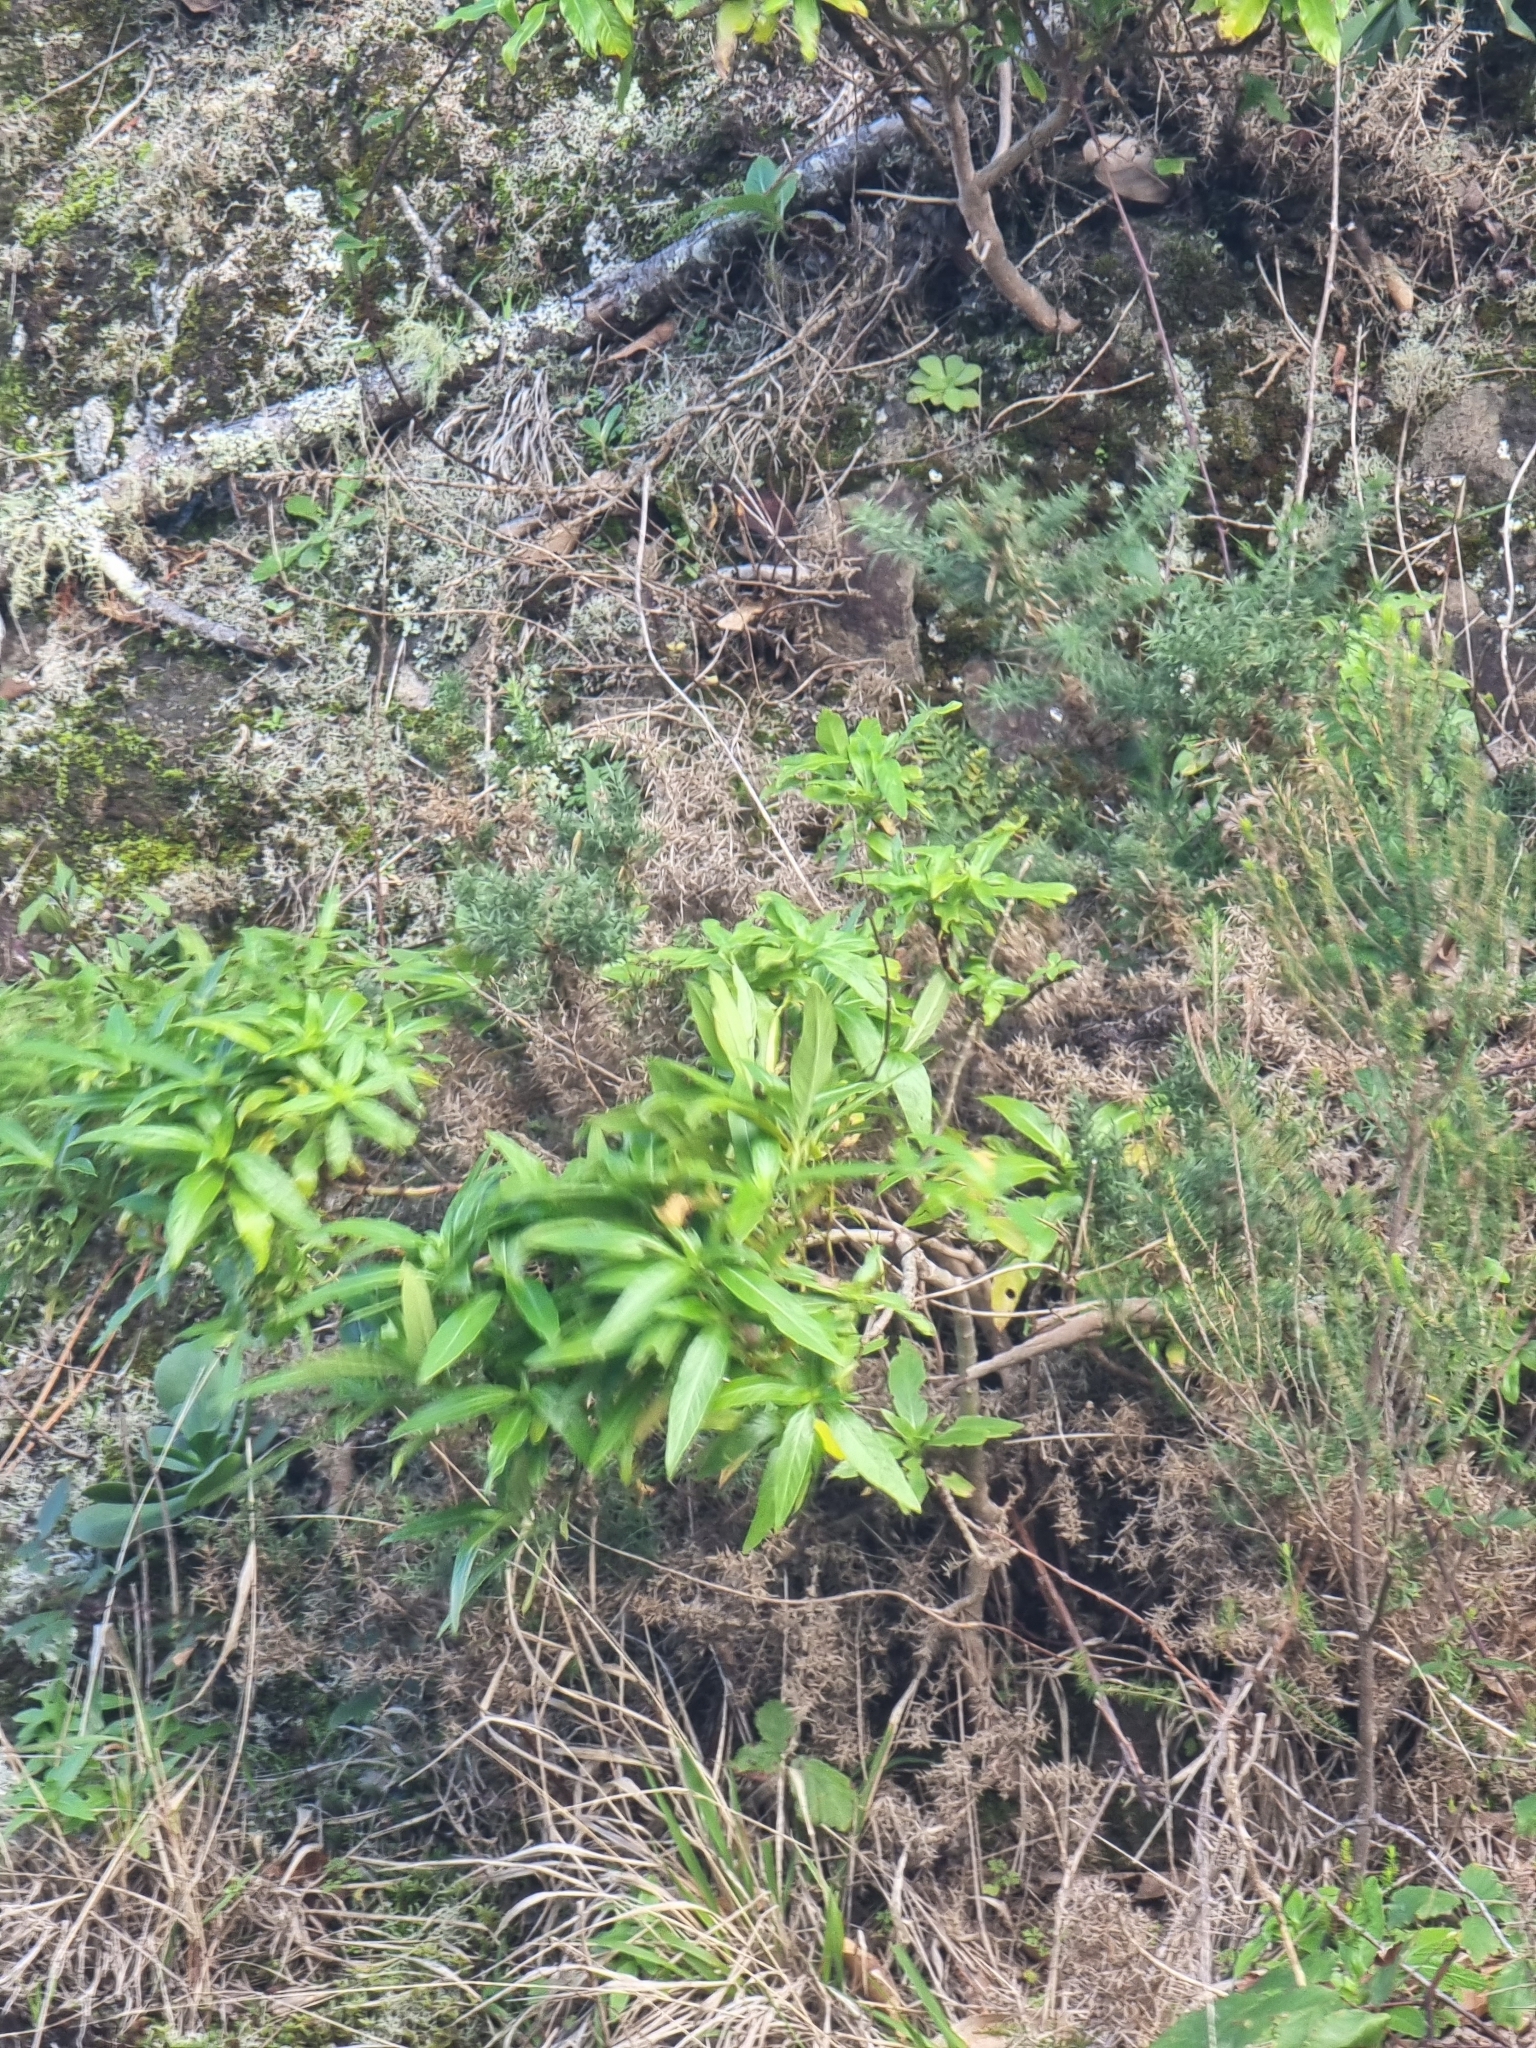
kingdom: Plantae
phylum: Tracheophyta
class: Magnoliopsida
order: Gentianales
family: Rubiaceae
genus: Phyllis
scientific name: Phyllis nobla
